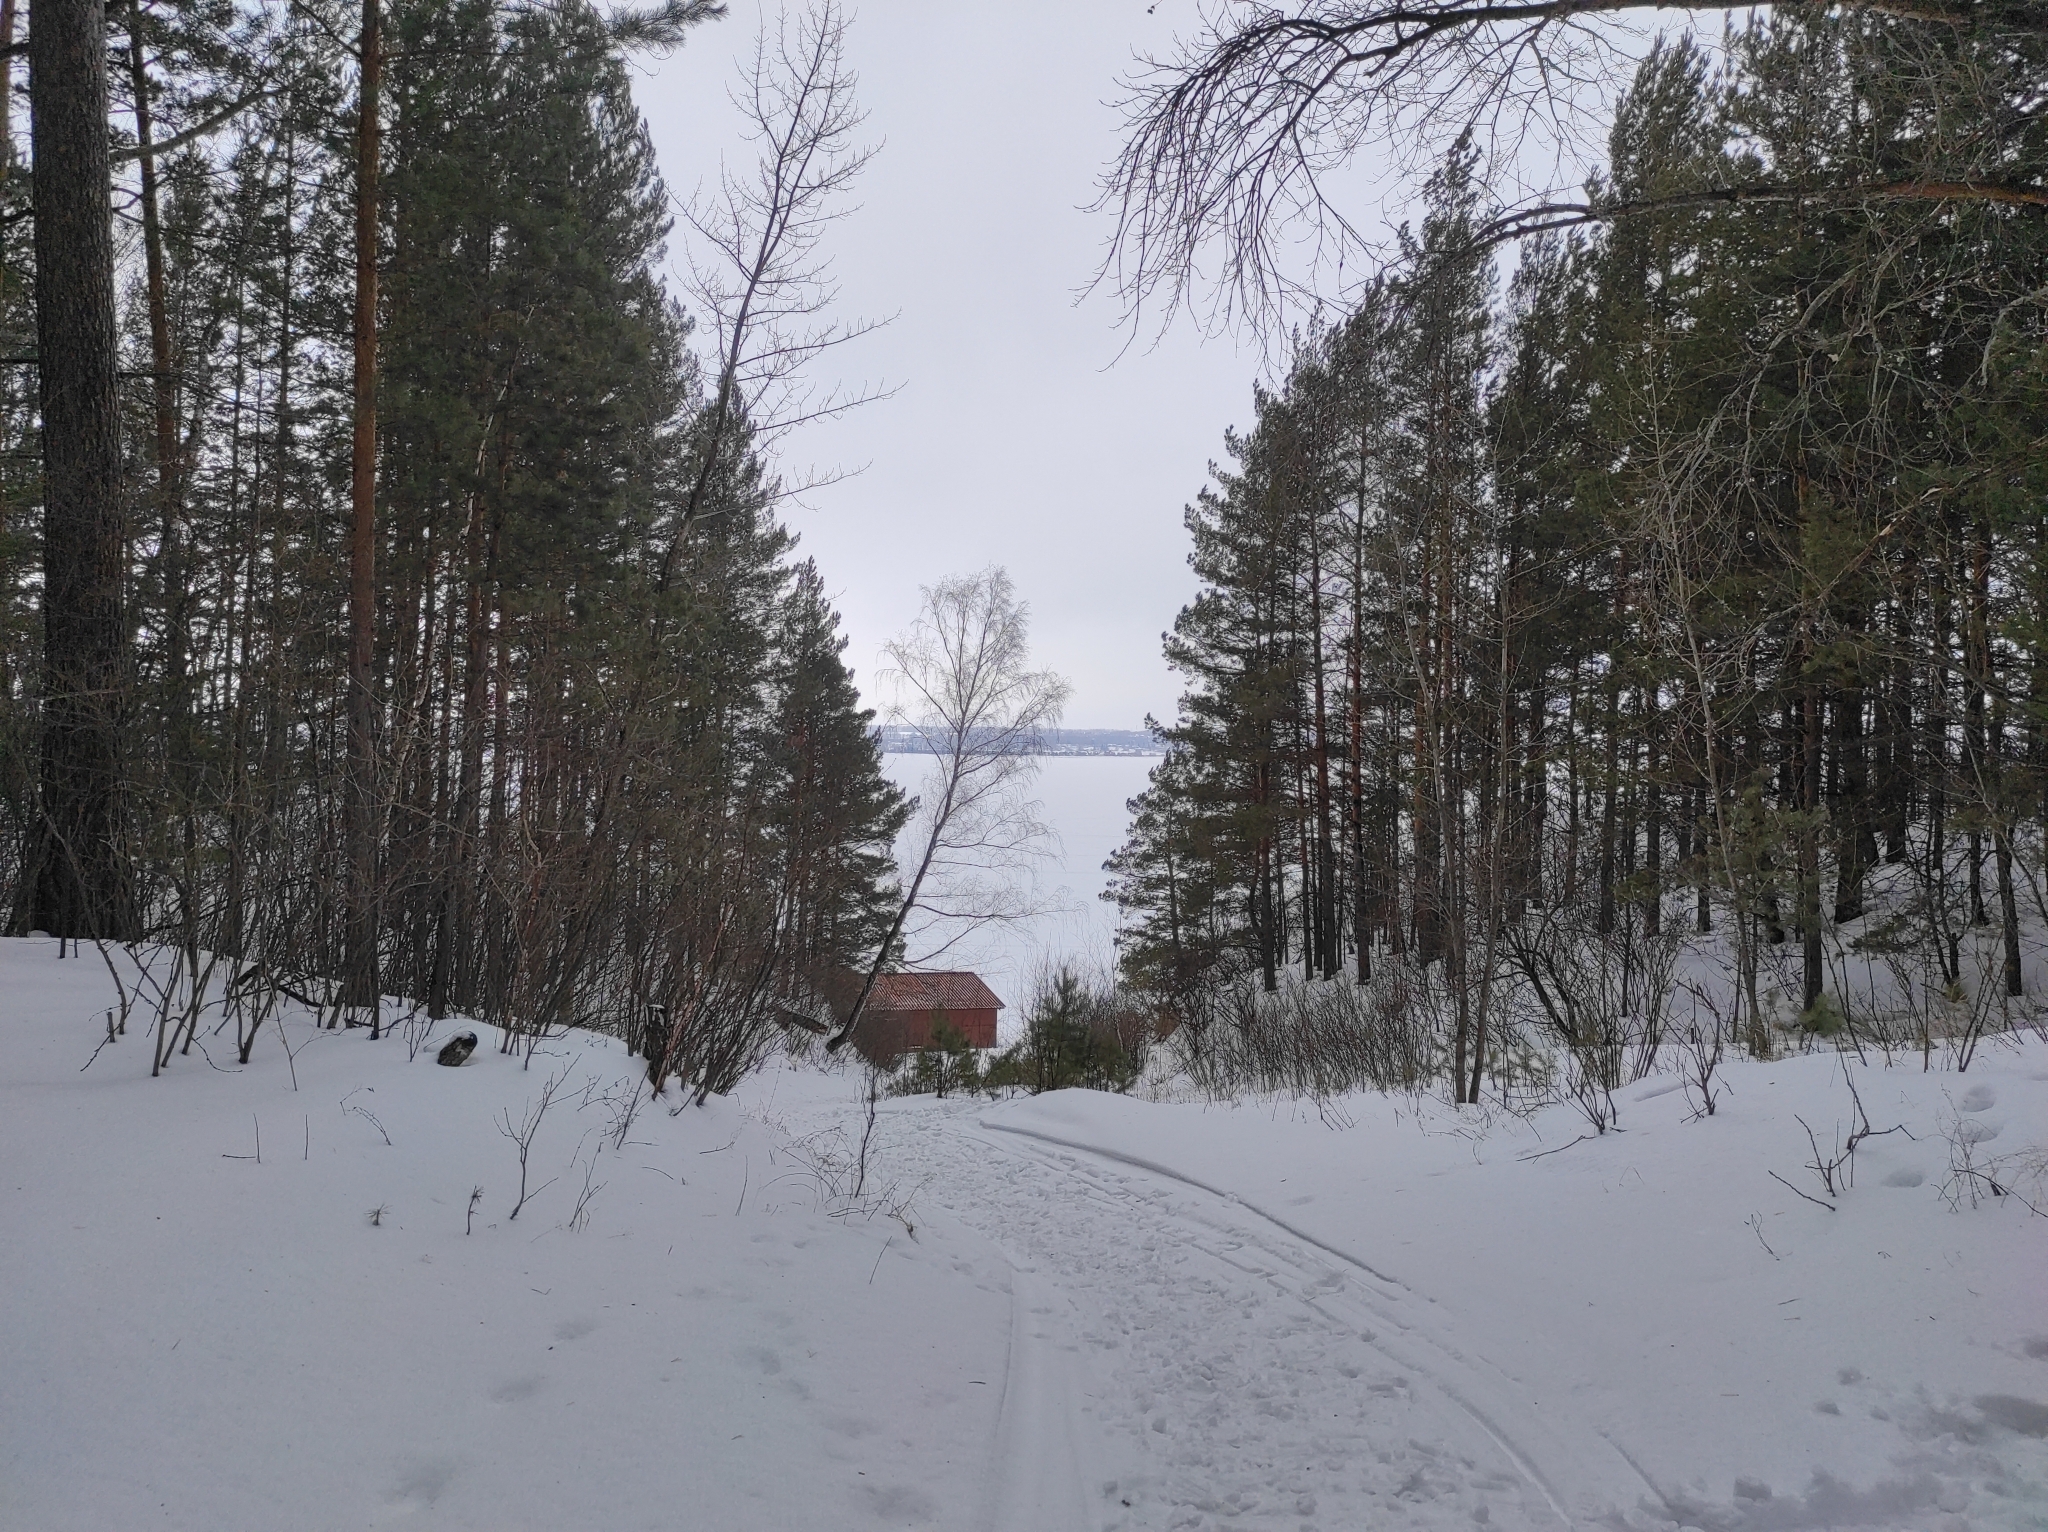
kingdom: Plantae
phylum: Tracheophyta
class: Pinopsida
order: Pinales
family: Pinaceae
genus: Pinus
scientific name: Pinus sylvestris
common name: Scots pine
